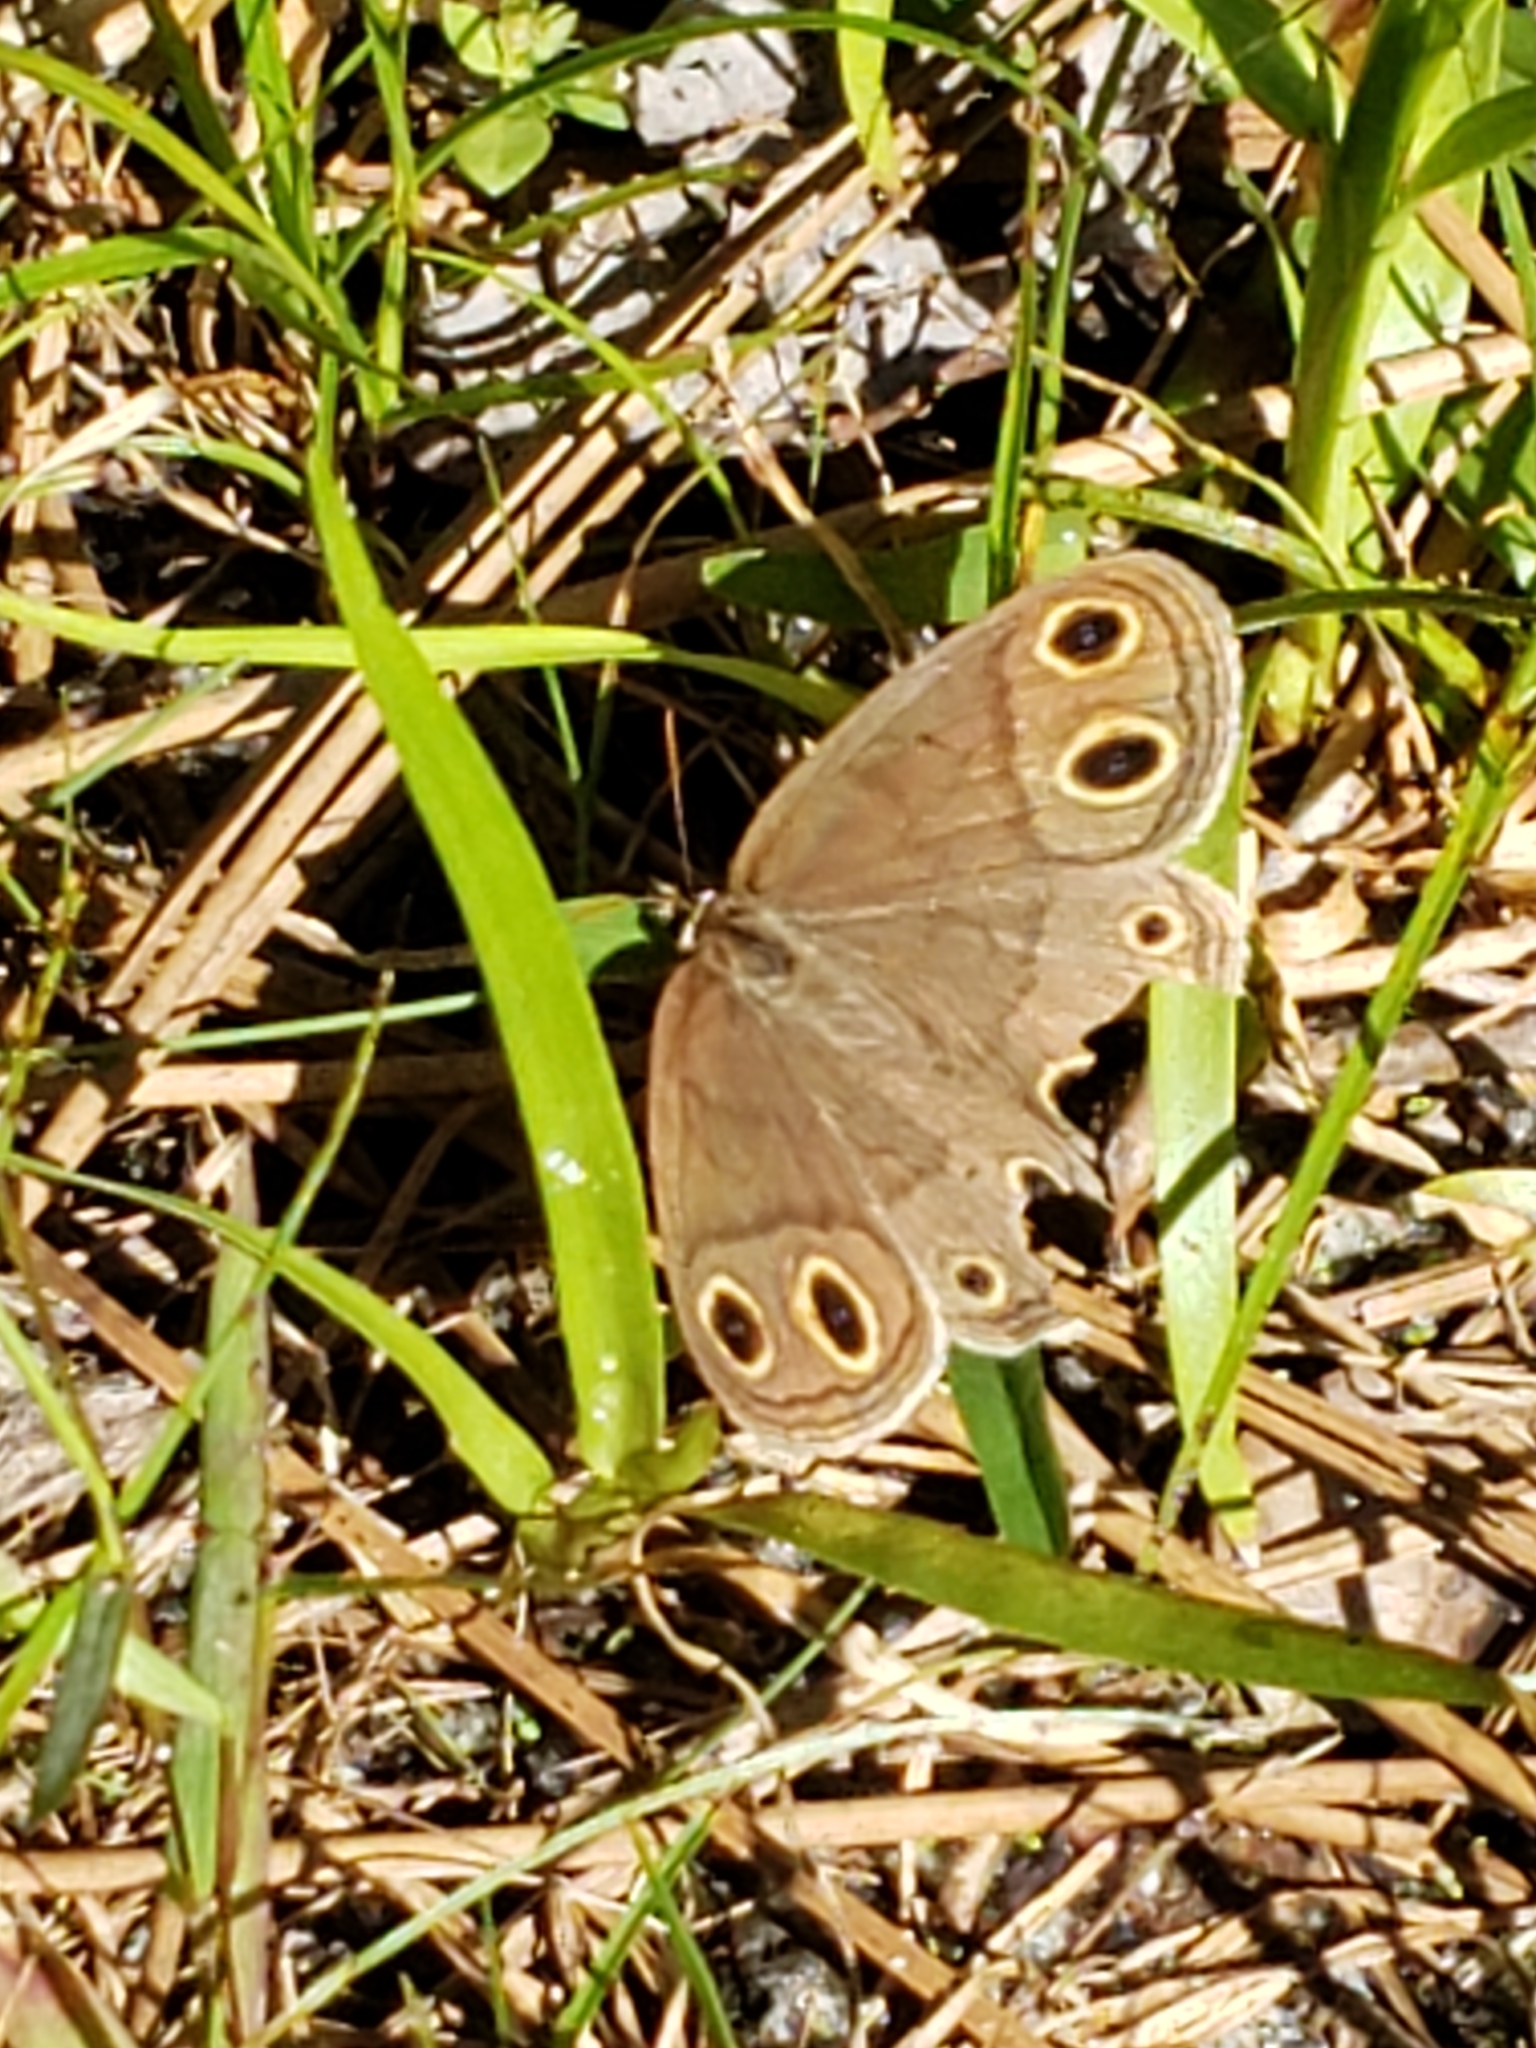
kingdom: Animalia
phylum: Arthropoda
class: Insecta
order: Lepidoptera
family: Nymphalidae
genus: Euptychia
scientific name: Euptychia cymela
